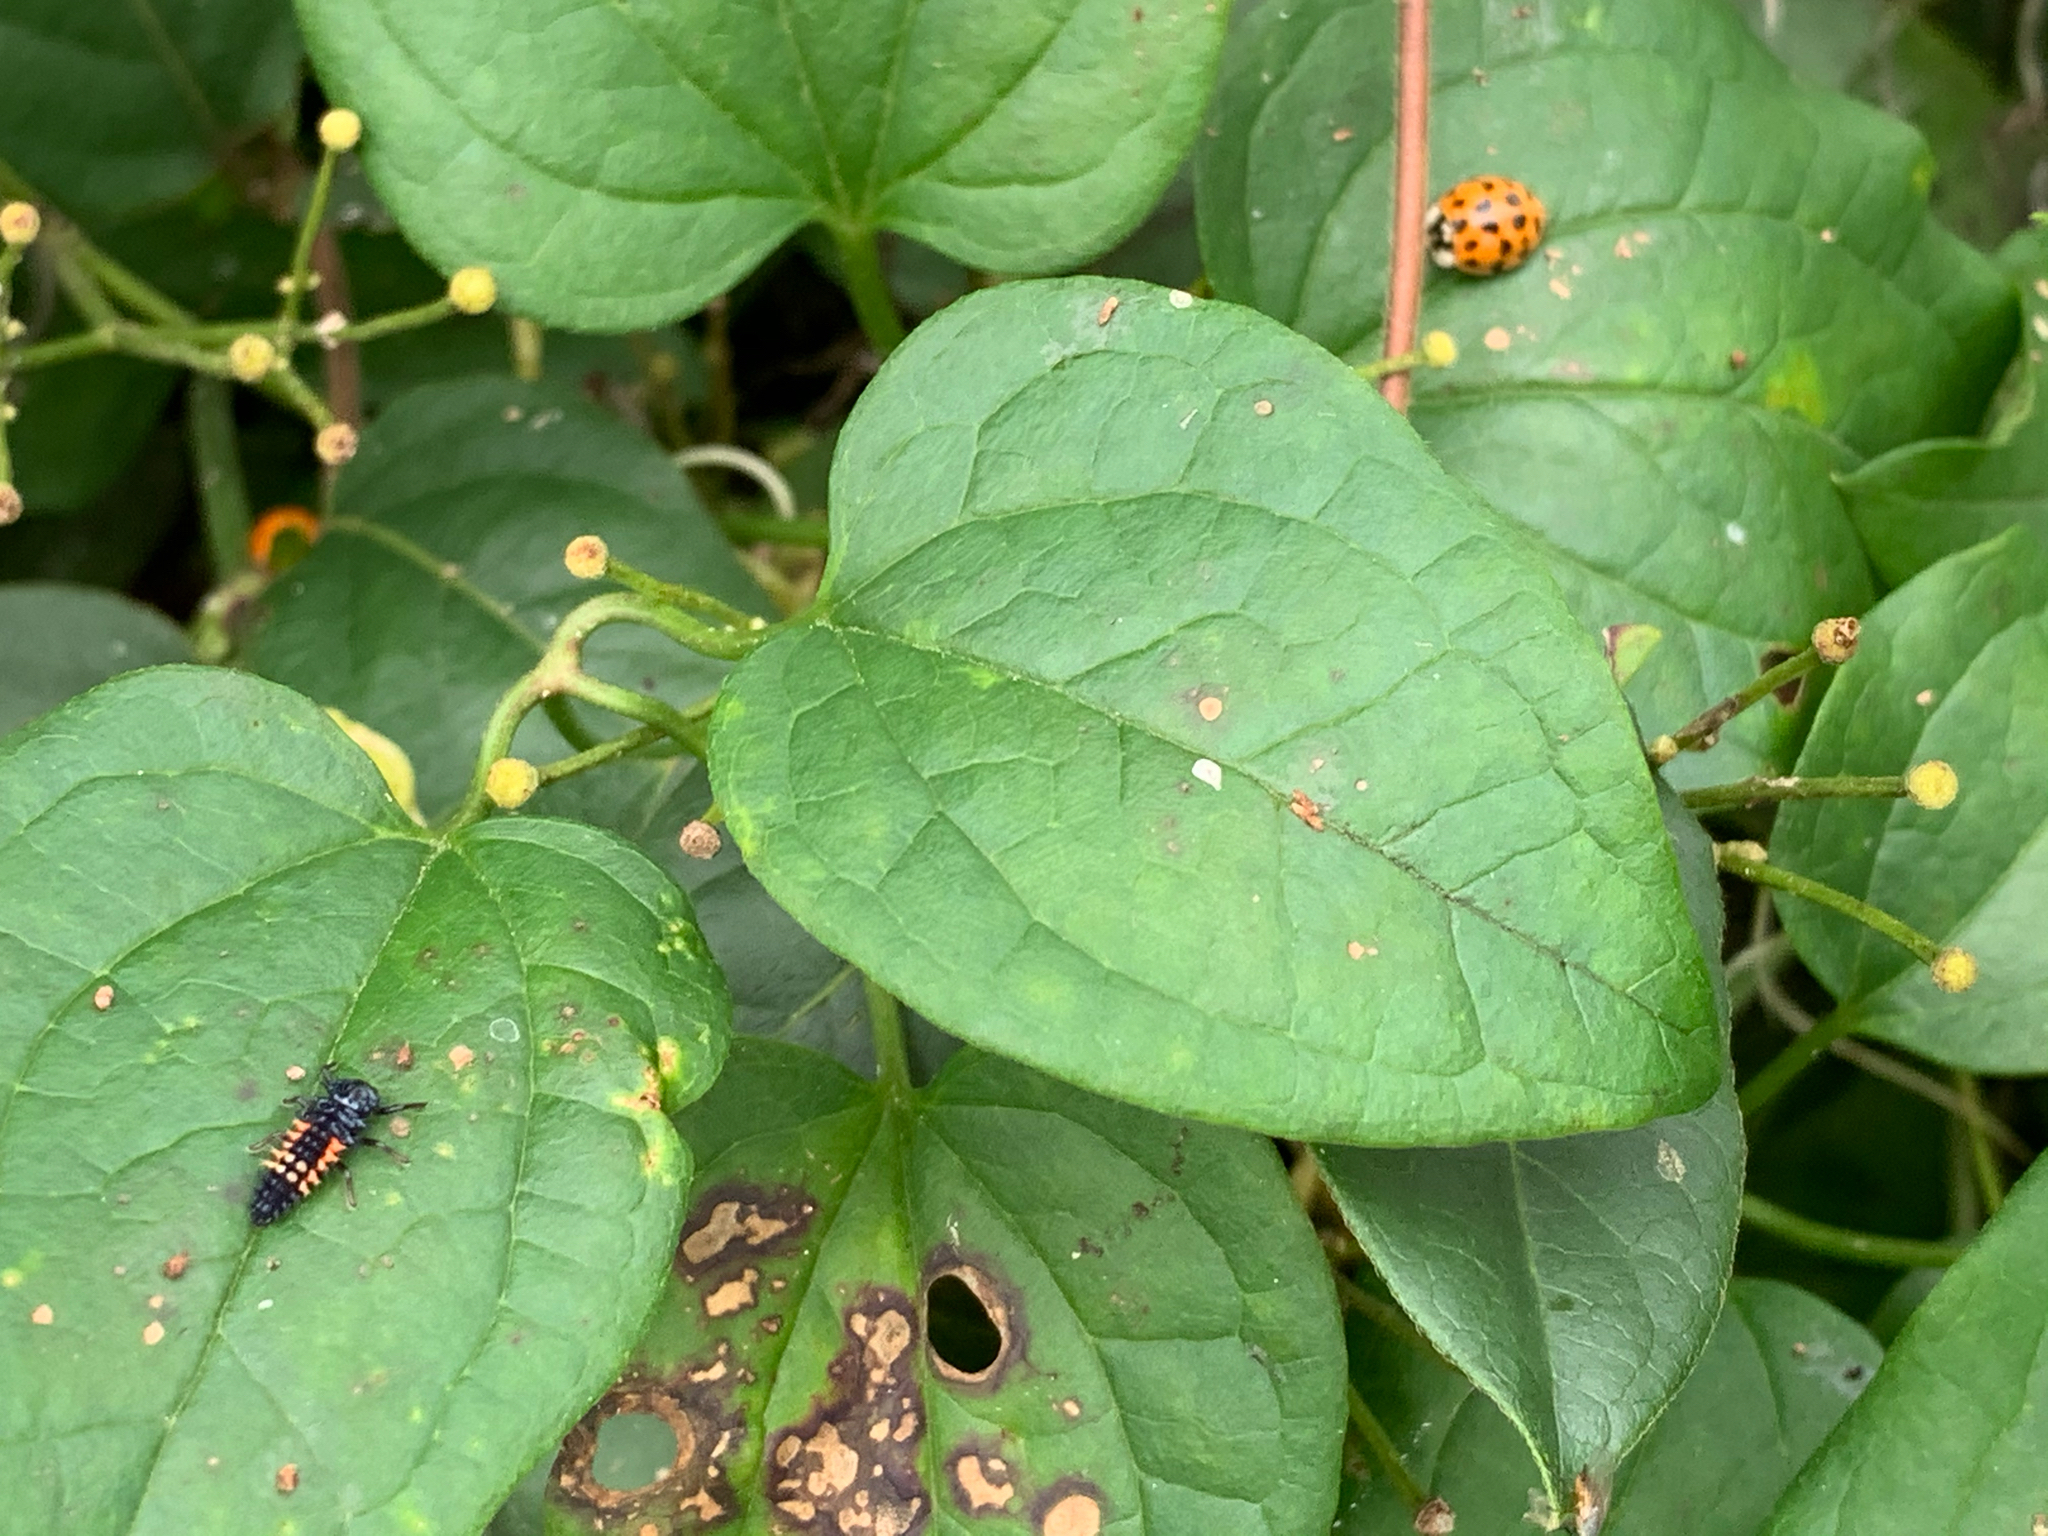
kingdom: Animalia
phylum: Arthropoda
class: Insecta
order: Coleoptera
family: Coccinellidae
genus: Harmonia
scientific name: Harmonia axyridis
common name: Harlequin ladybird
